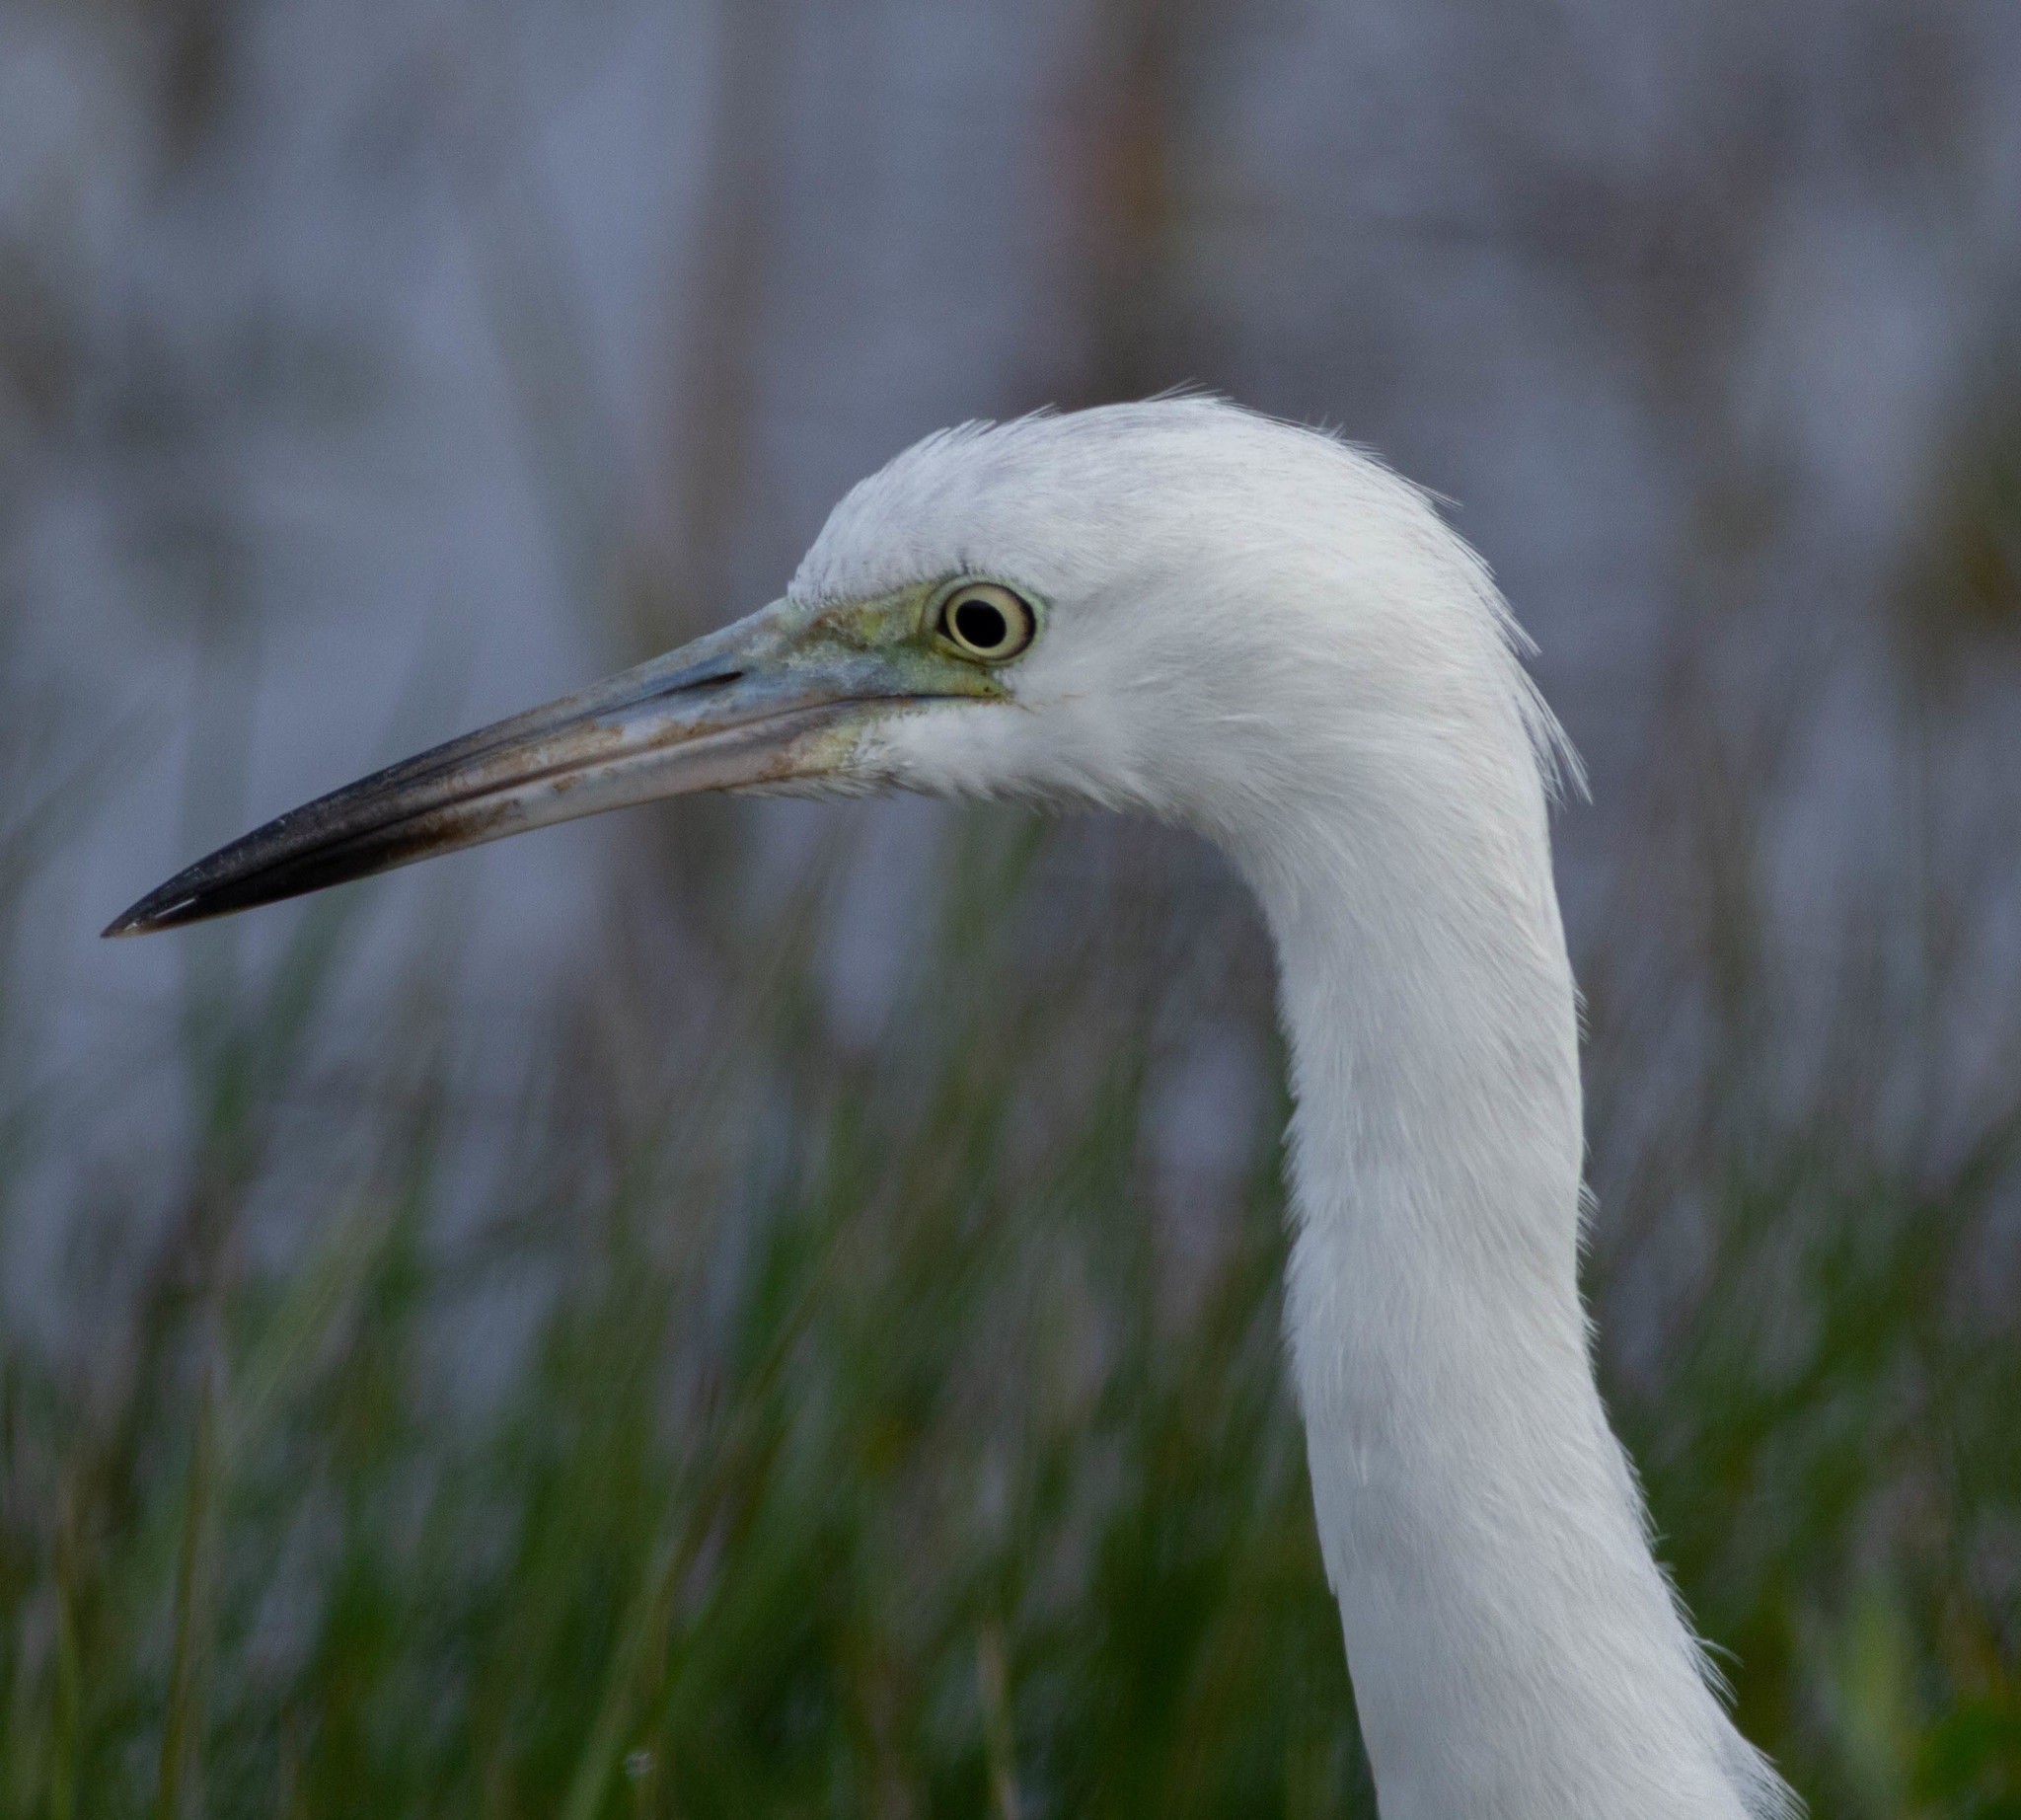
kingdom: Animalia
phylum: Chordata
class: Aves
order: Pelecaniformes
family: Ardeidae
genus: Egretta
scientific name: Egretta caerulea
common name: Little blue heron
